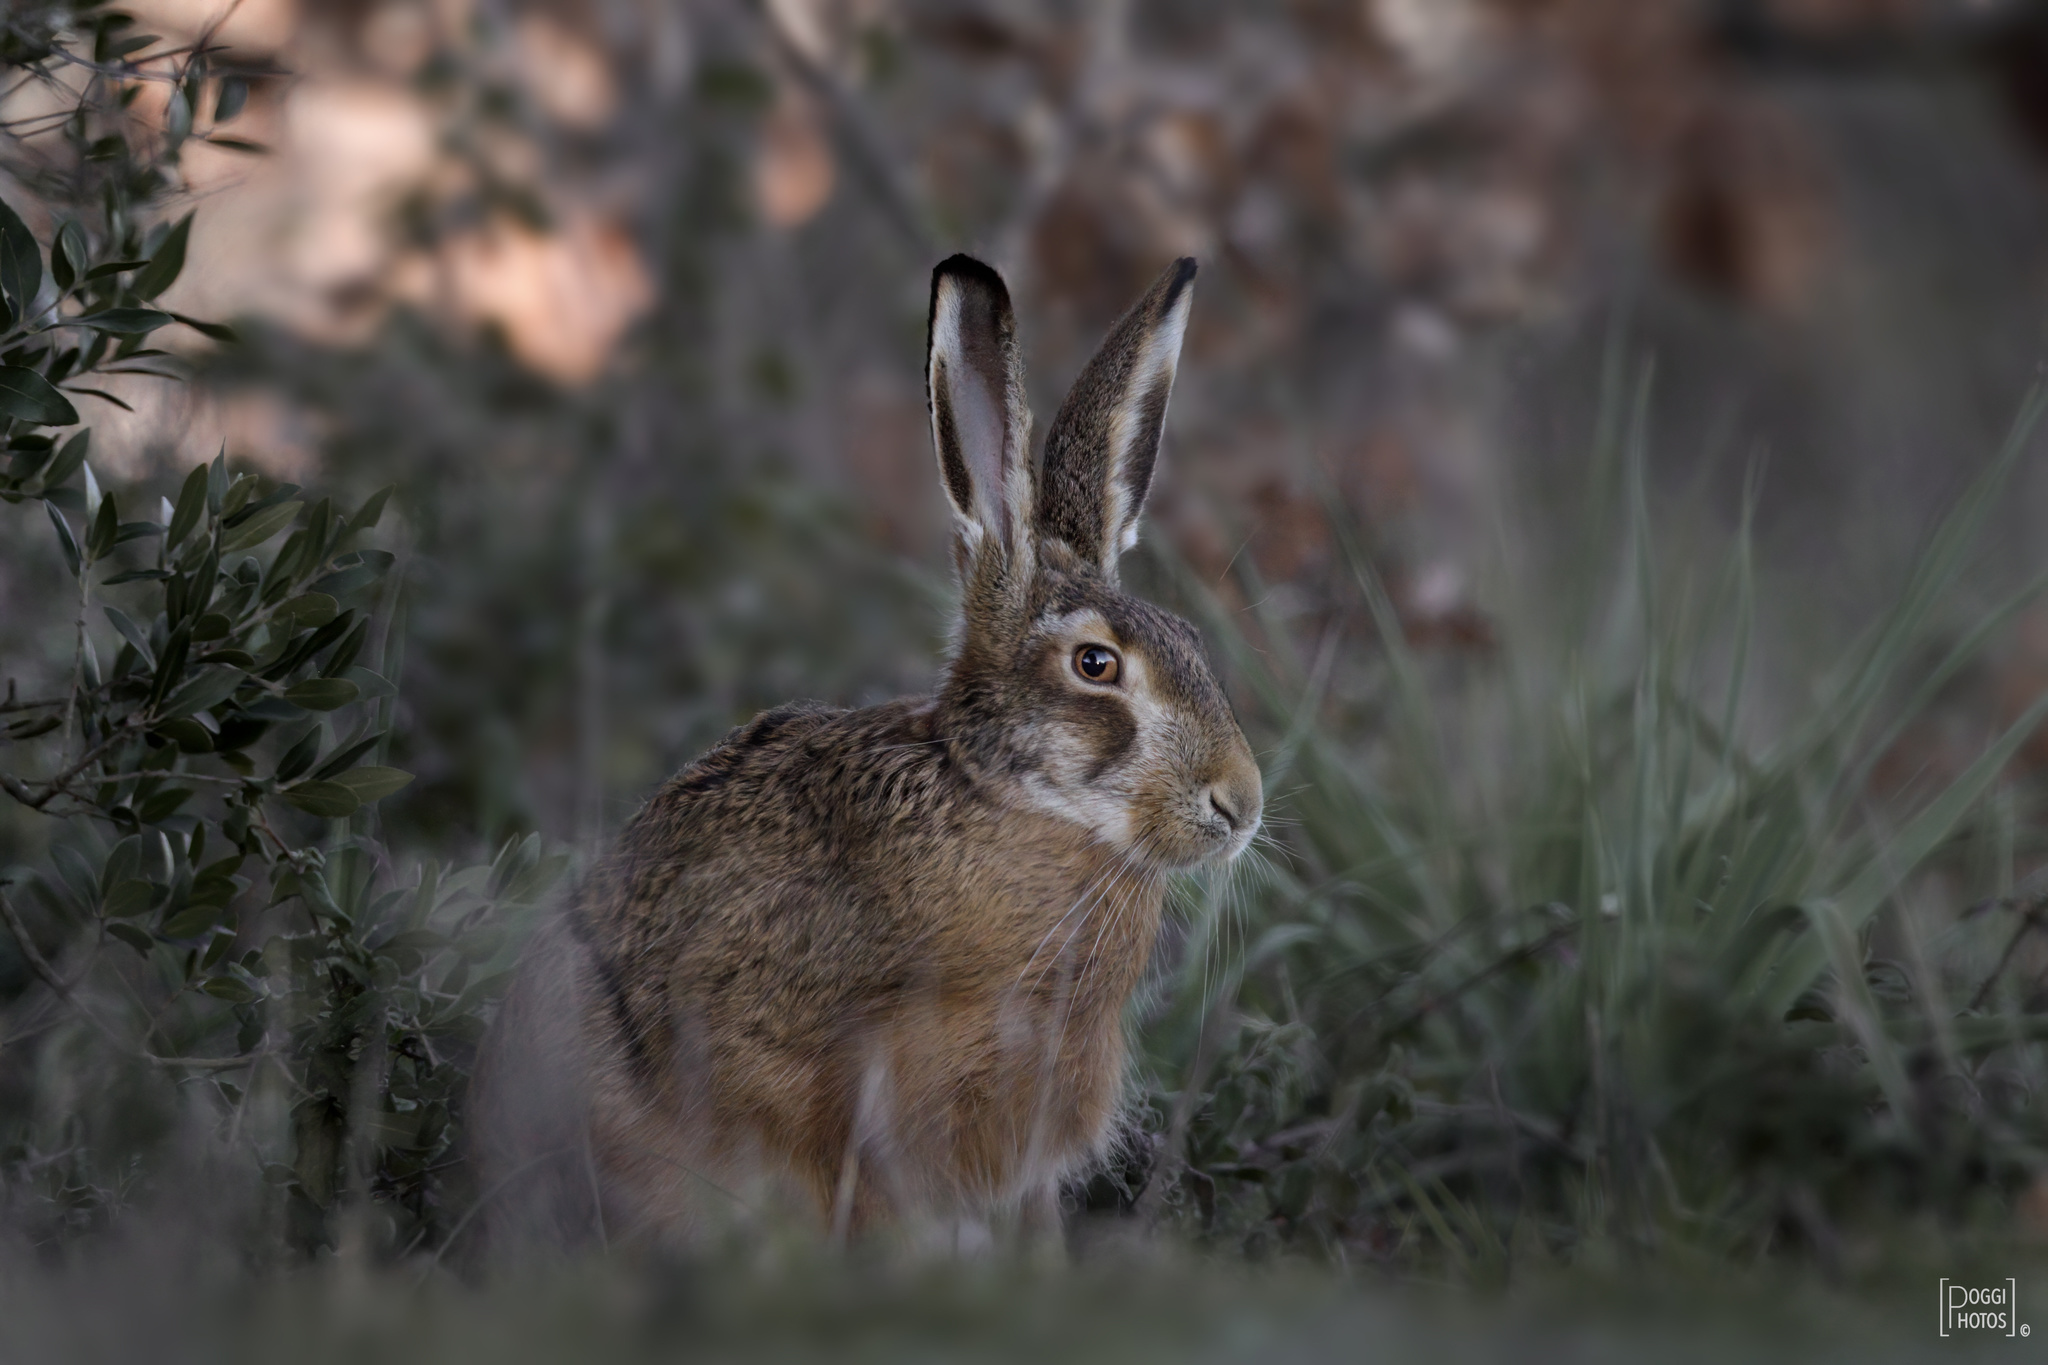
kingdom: Animalia
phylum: Chordata
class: Mammalia
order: Lagomorpha
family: Leporidae
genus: Lepus
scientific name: Lepus europaeus
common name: European hare
